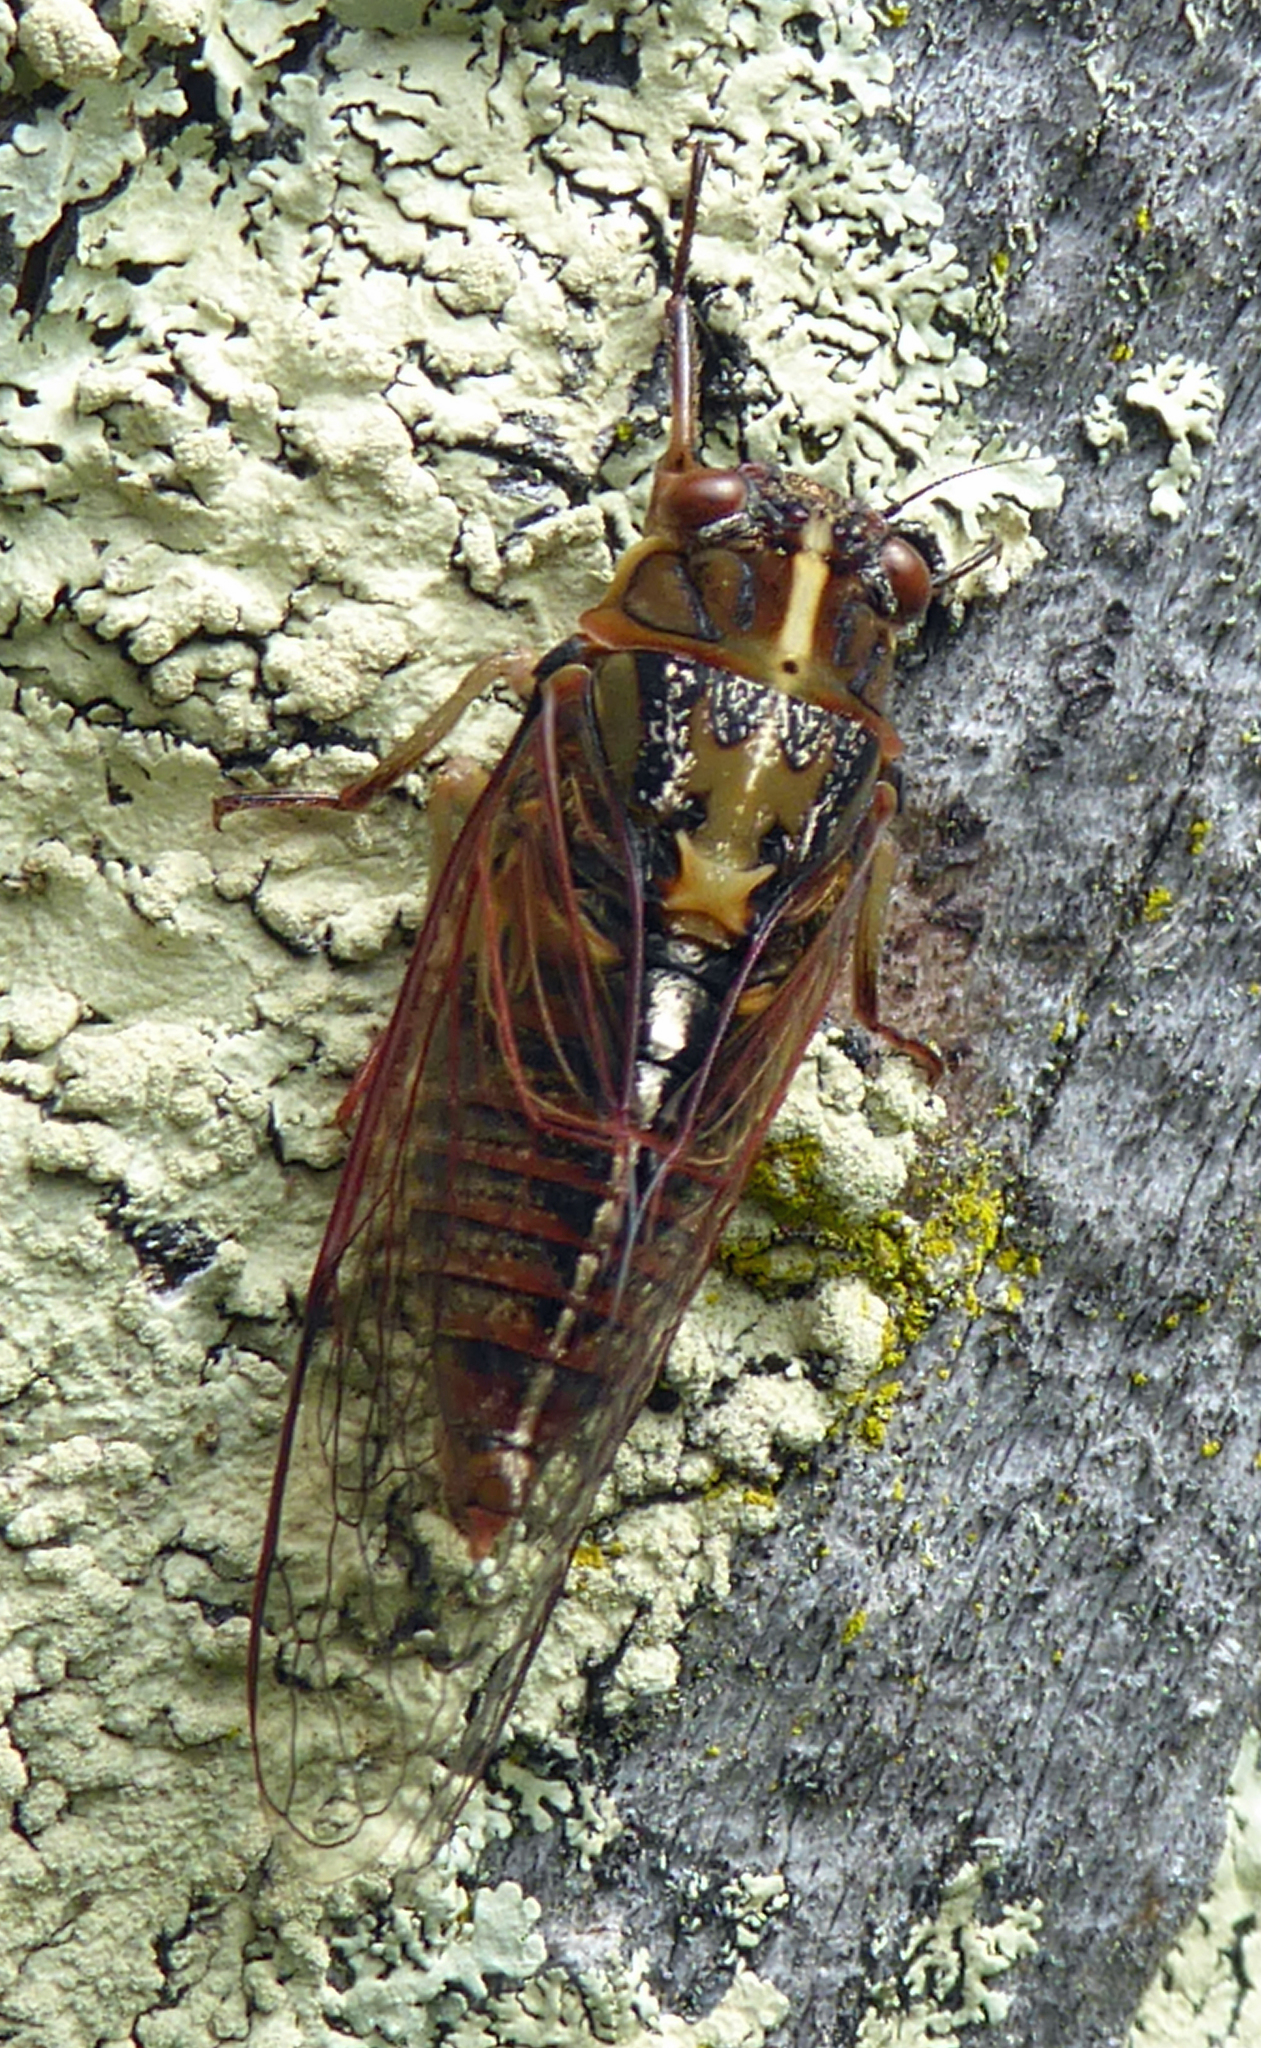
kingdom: Animalia
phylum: Arthropoda
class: Insecta
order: Hemiptera
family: Cicadidae
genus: Kikihia
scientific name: Kikihia muta
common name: Variable cicada
